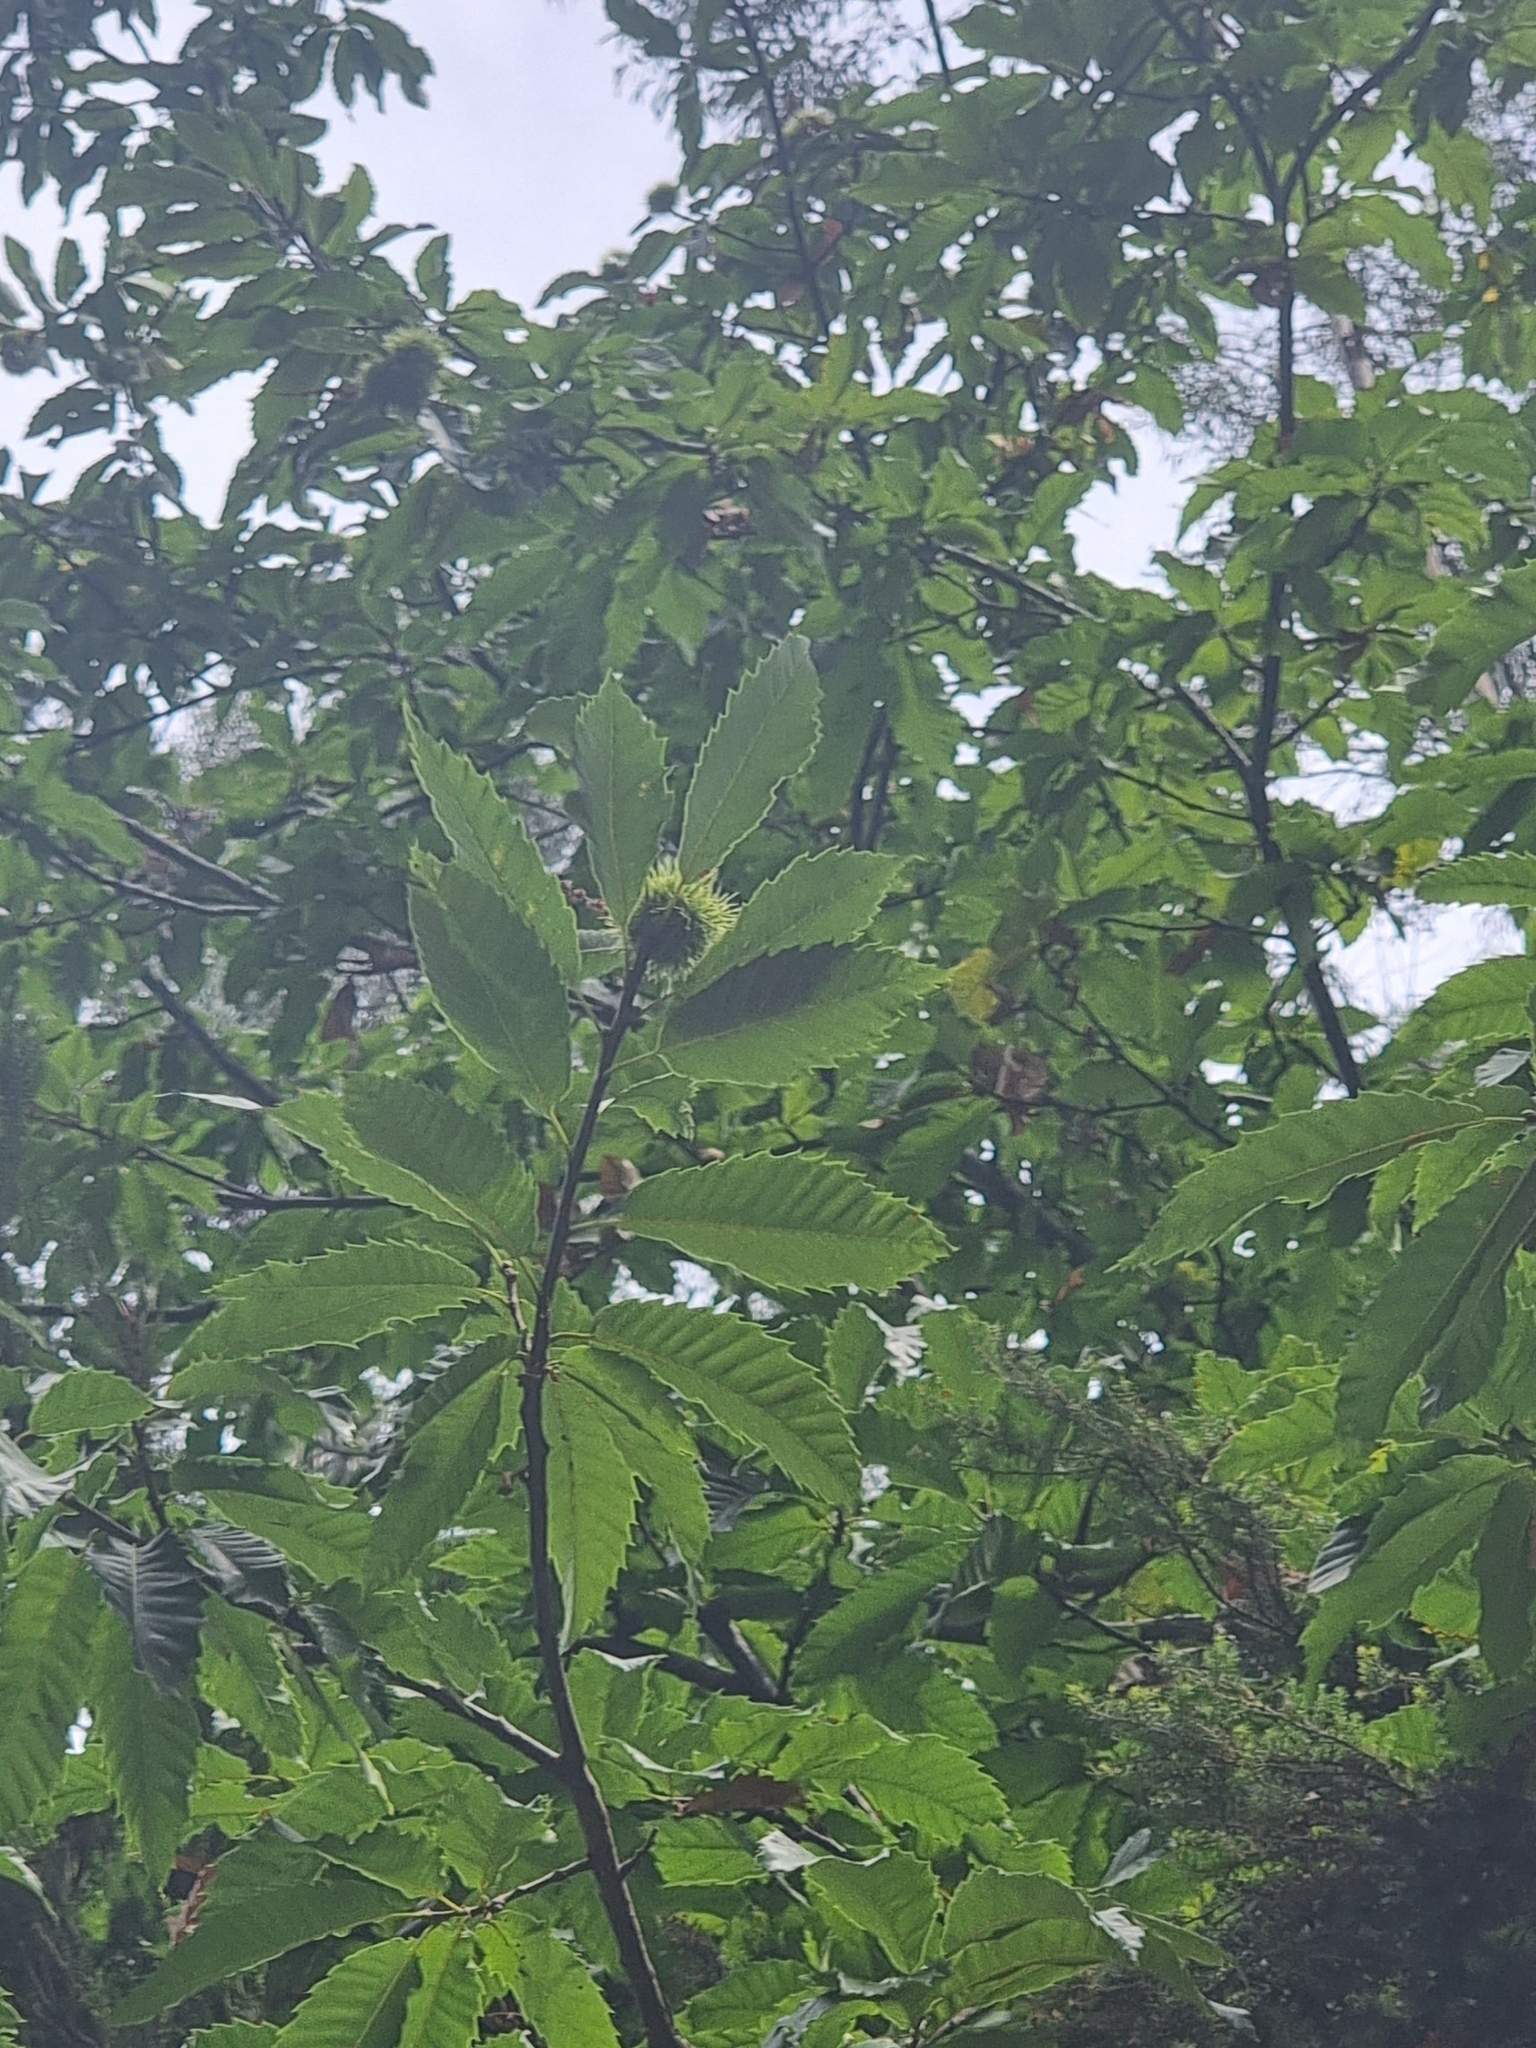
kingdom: Plantae
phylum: Tracheophyta
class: Magnoliopsida
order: Fagales
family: Fagaceae
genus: Castanea
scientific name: Castanea sativa
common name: Sweet chestnut
